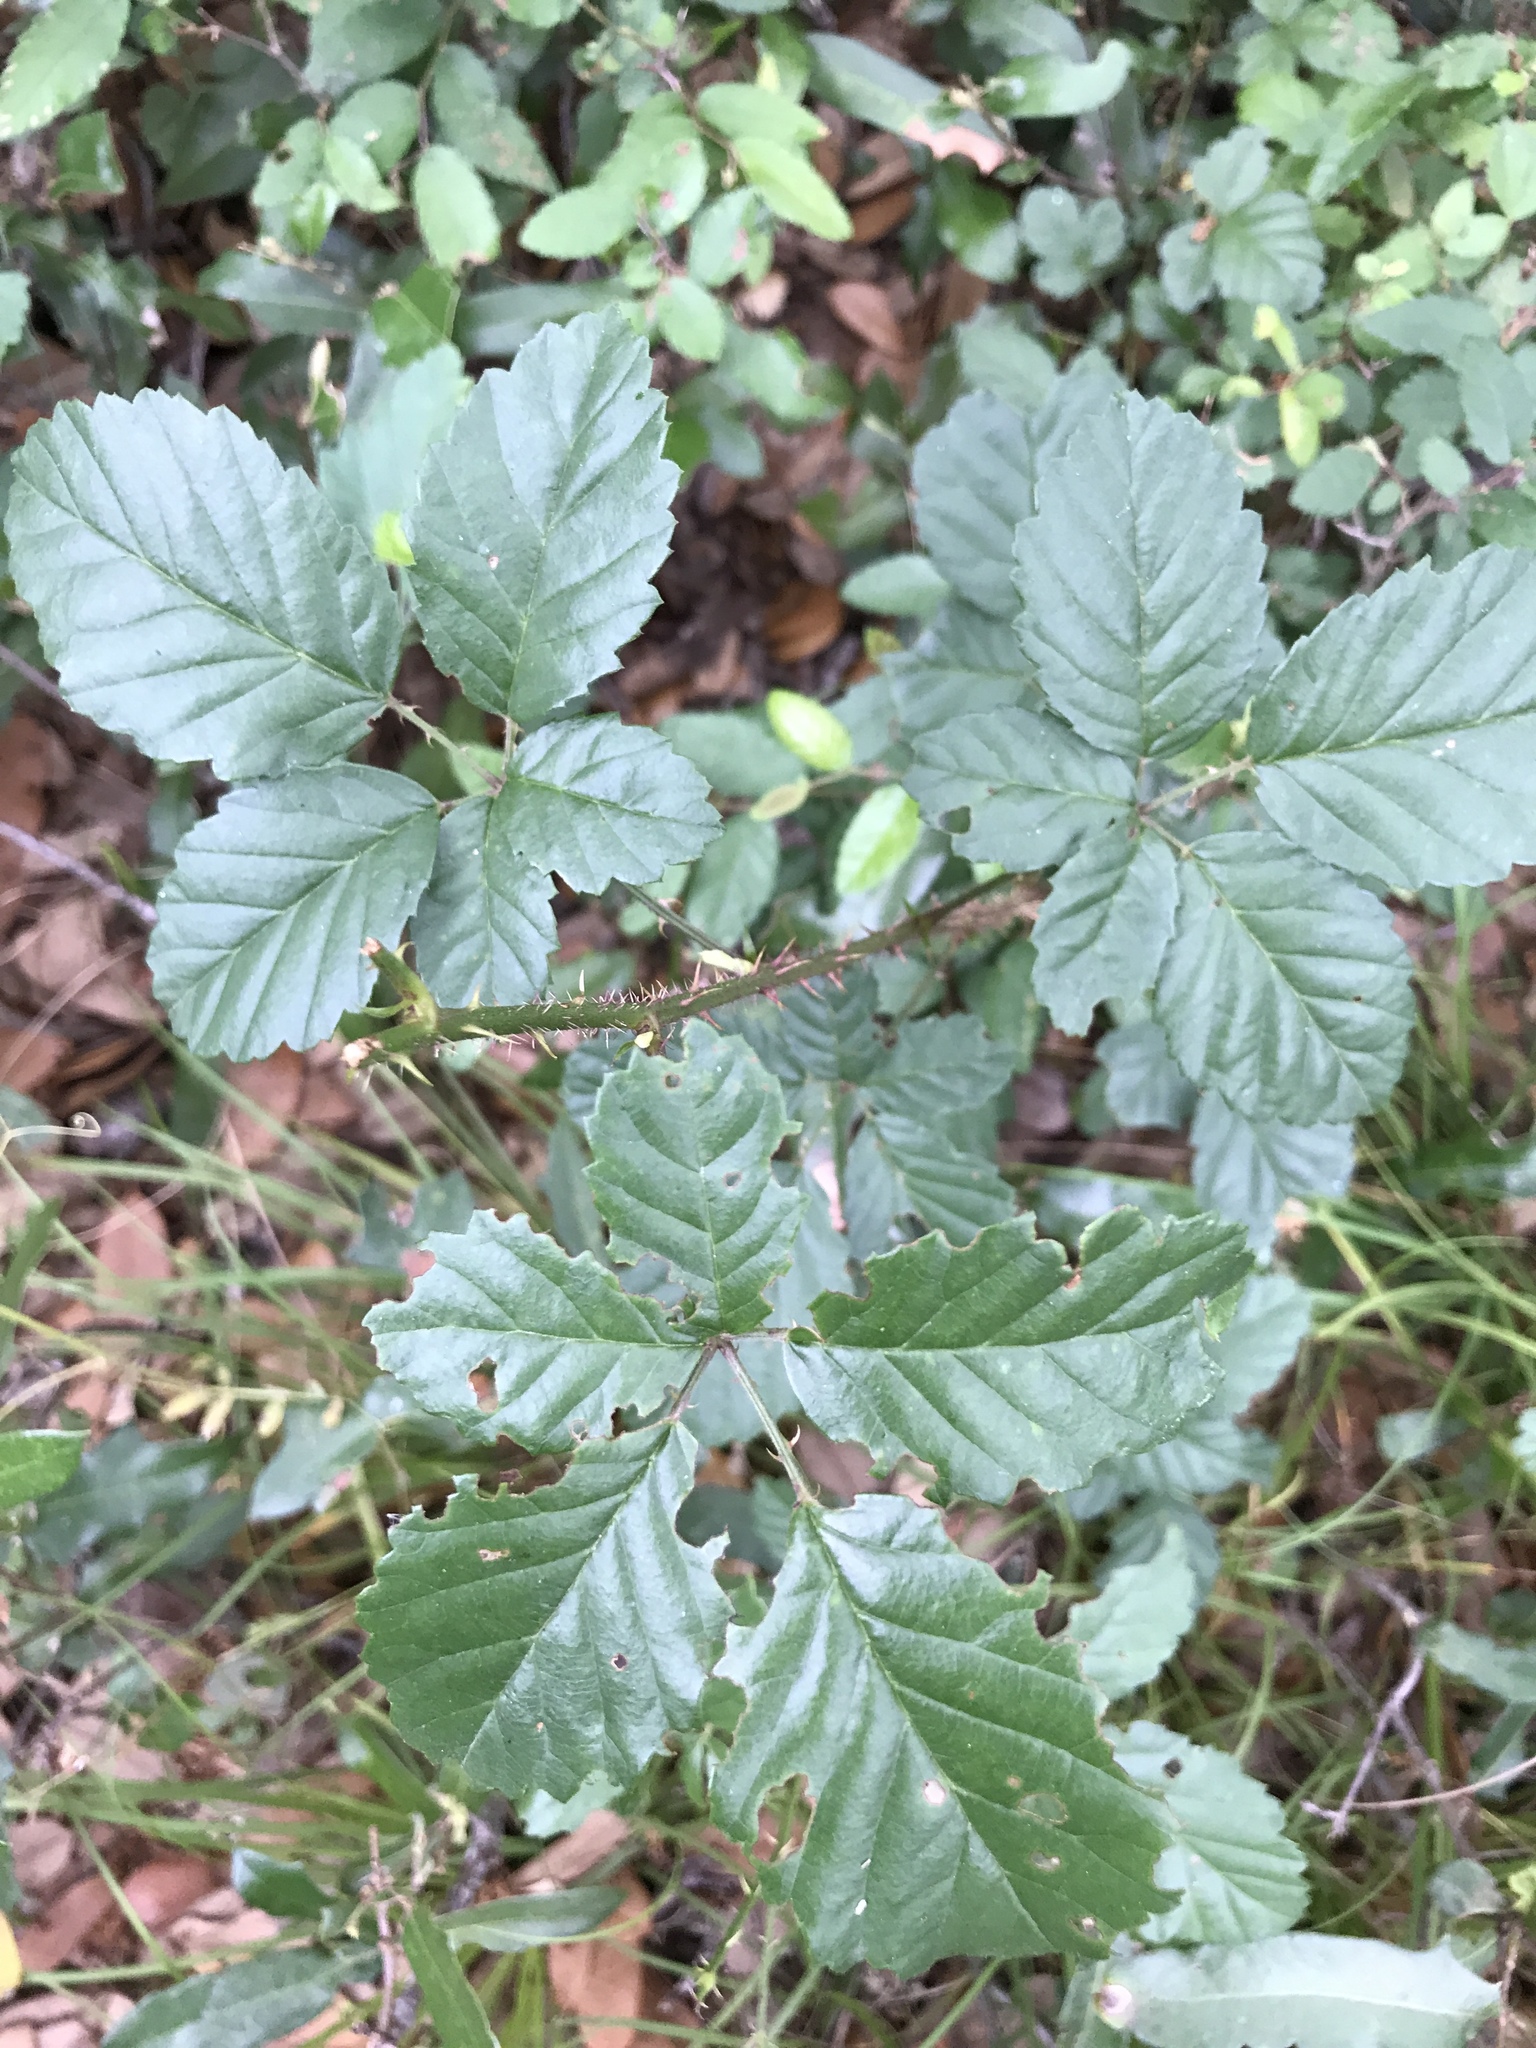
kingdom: Plantae
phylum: Tracheophyta
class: Magnoliopsida
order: Rosales
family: Rosaceae
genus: Rubus
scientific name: Rubus trivialis
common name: Southern dewberry
